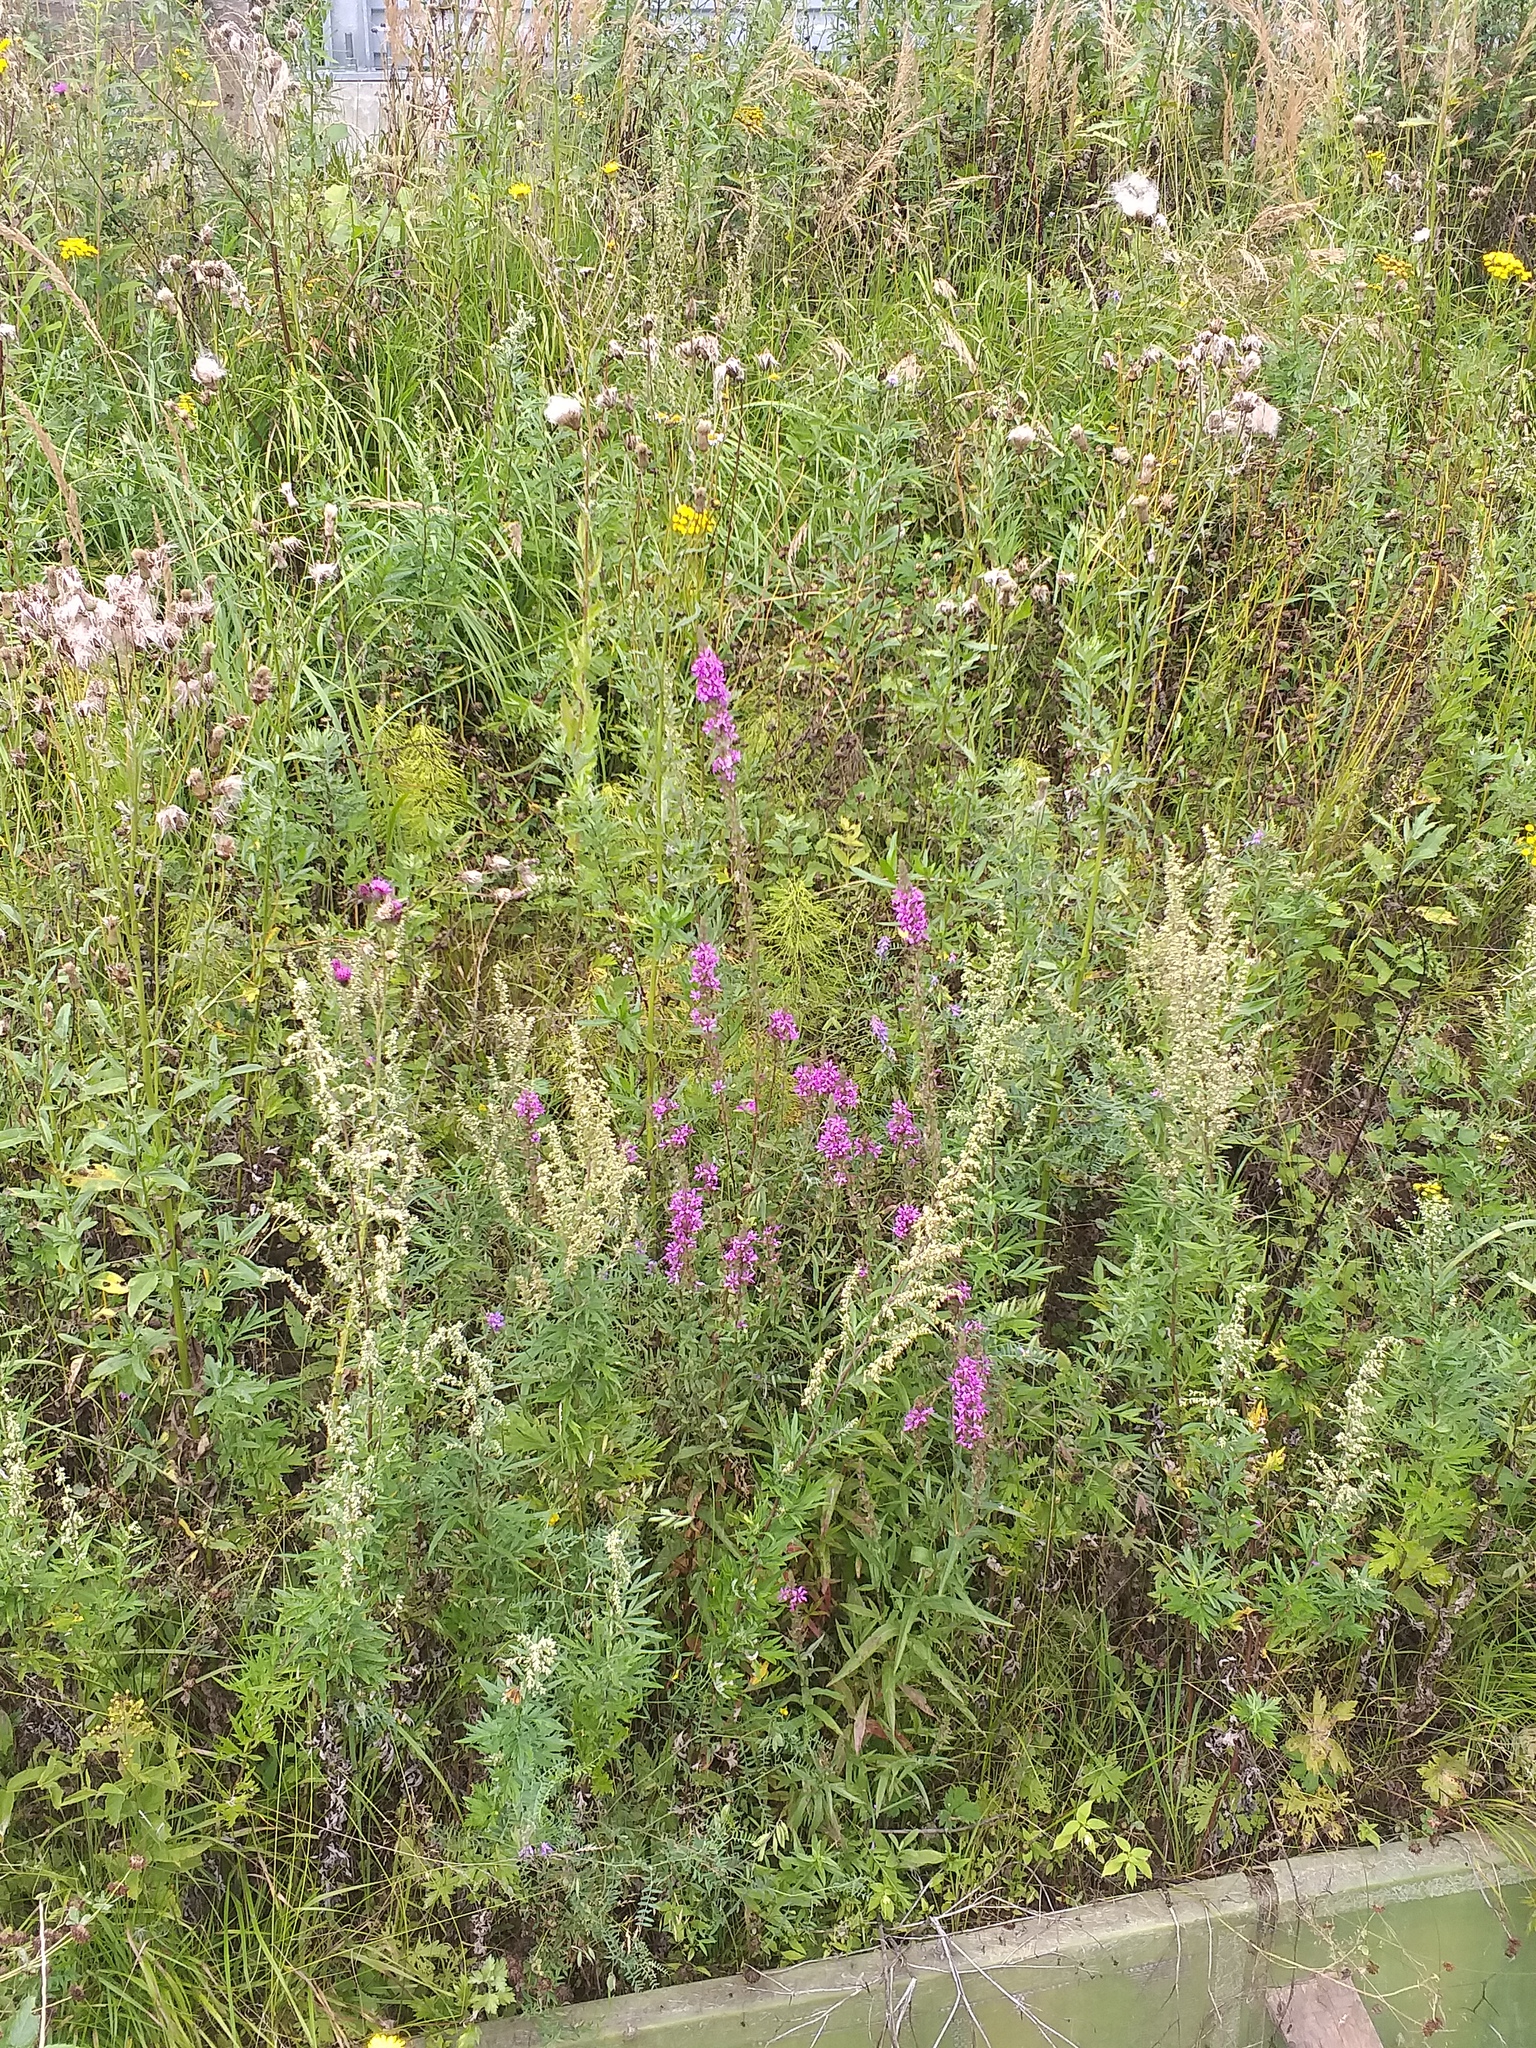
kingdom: Plantae
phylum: Tracheophyta
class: Magnoliopsida
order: Myrtales
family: Lythraceae
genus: Lythrum
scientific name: Lythrum salicaria
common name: Purple loosestrife
